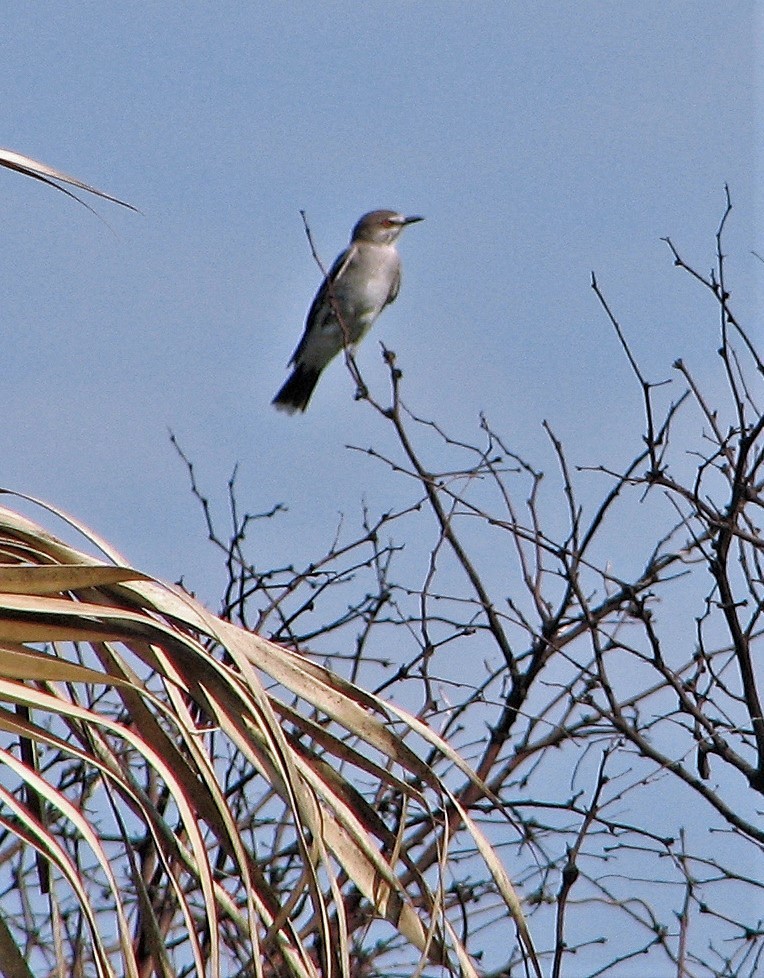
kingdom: Animalia
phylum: Chordata
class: Aves
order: Passeriformes
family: Tyrannidae
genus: Xolmis
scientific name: Xolmis cinereus
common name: Grey monjita
